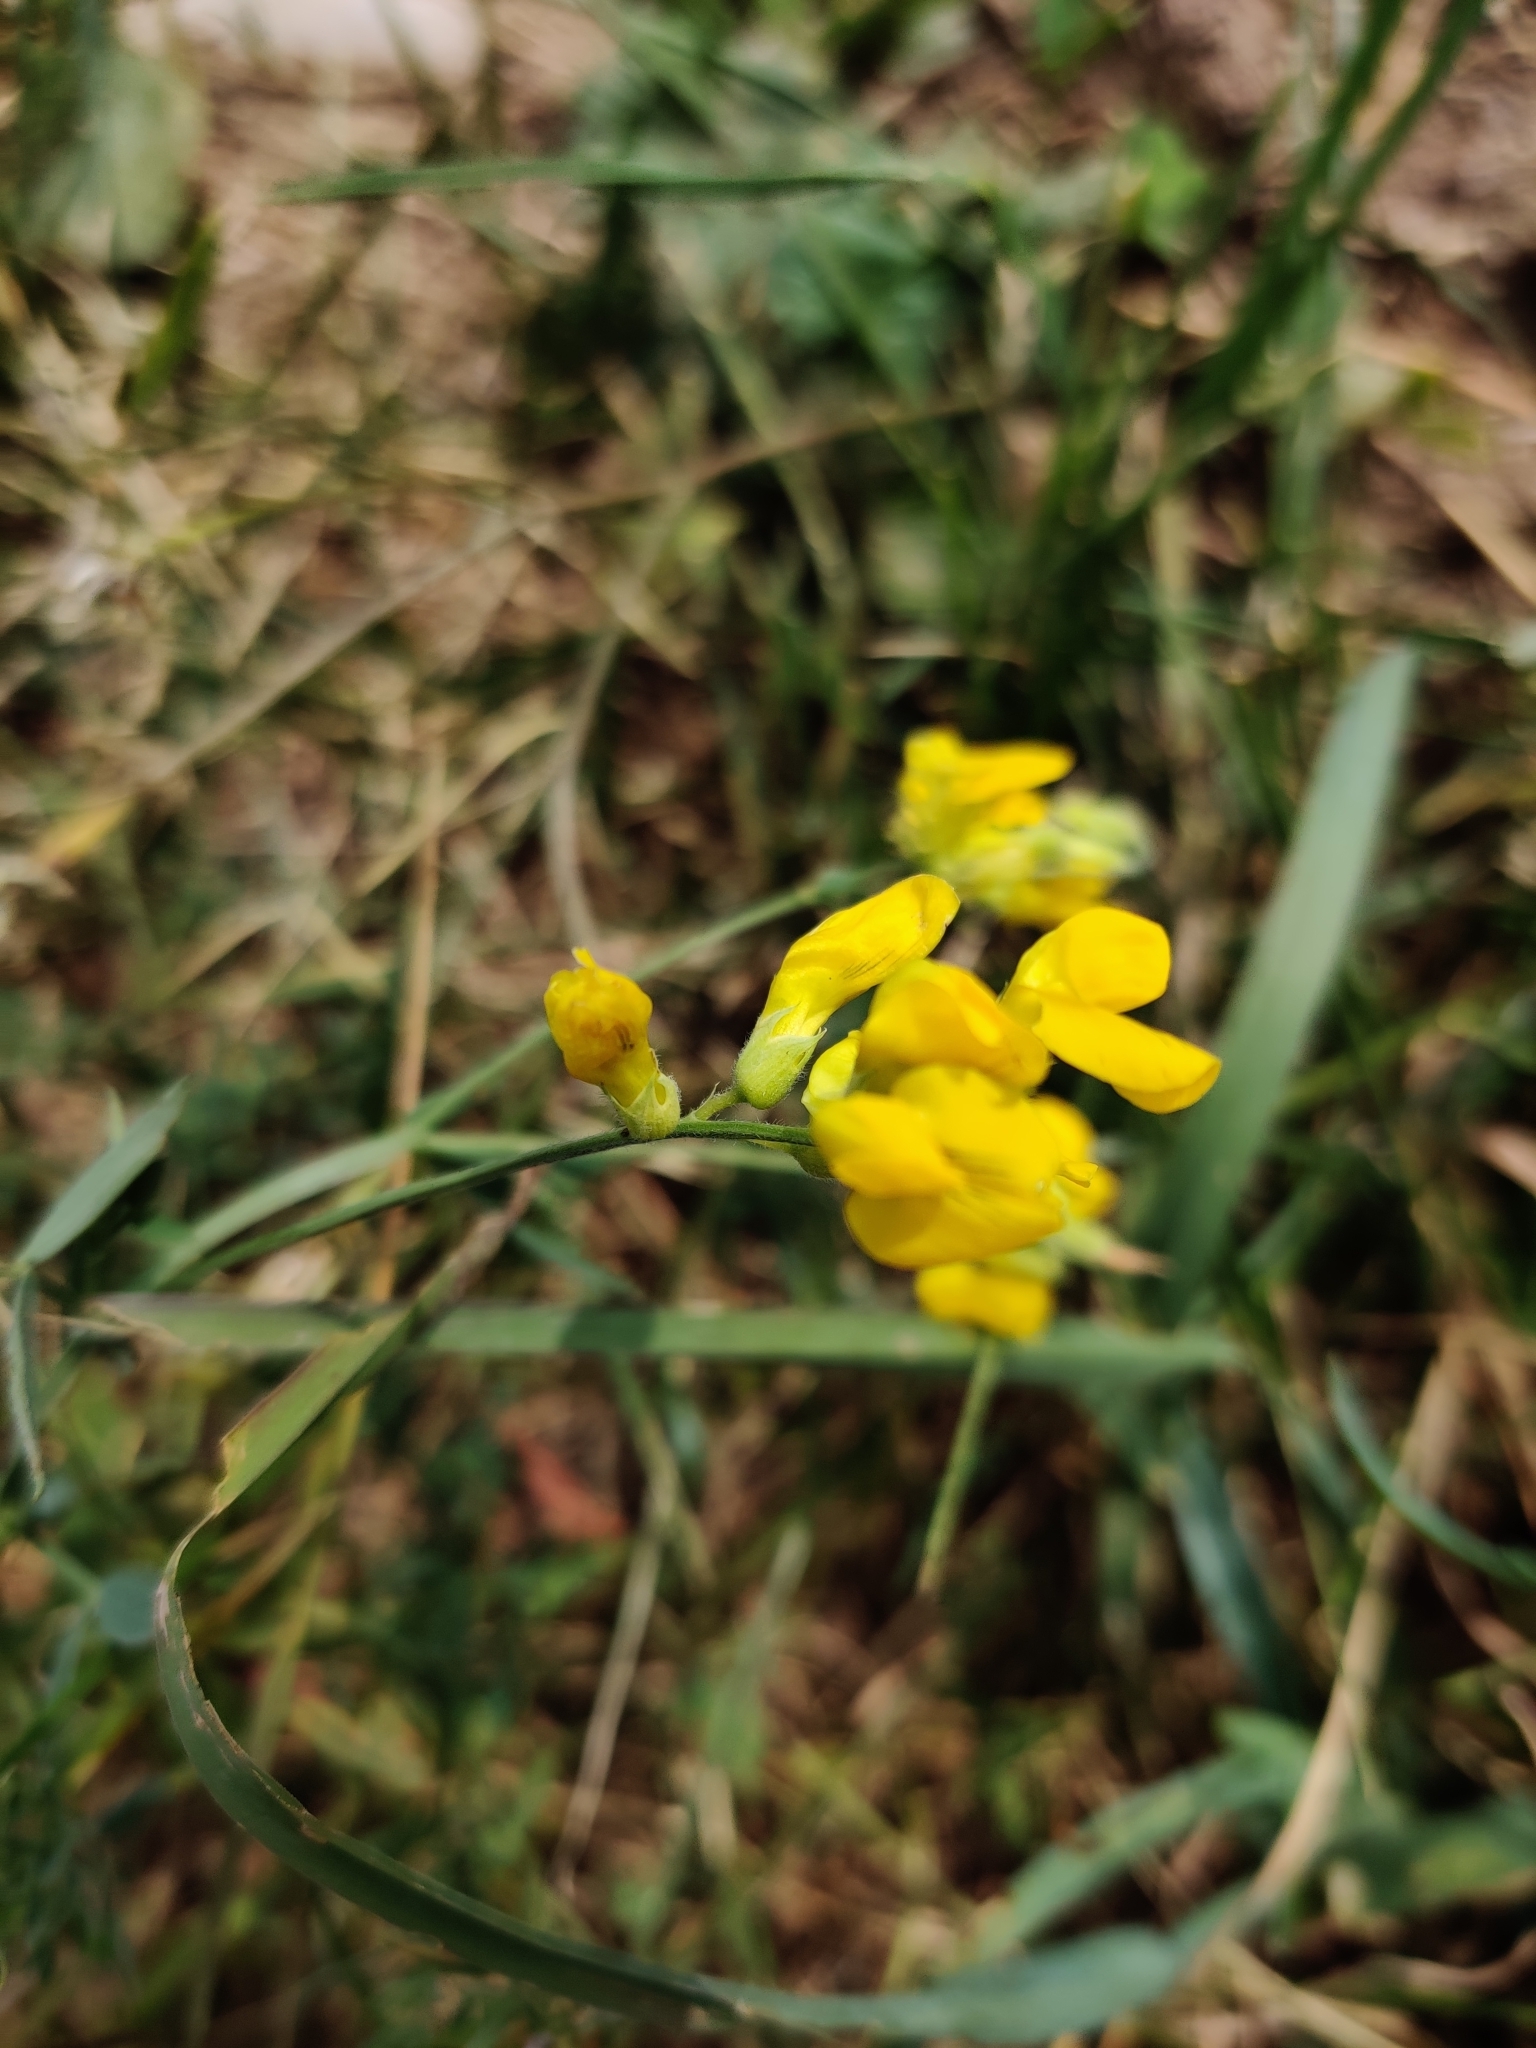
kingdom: Plantae
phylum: Tracheophyta
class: Magnoliopsida
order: Fabales
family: Fabaceae
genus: Lotus
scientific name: Lotus corniculatus
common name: Common bird's-foot-trefoil
